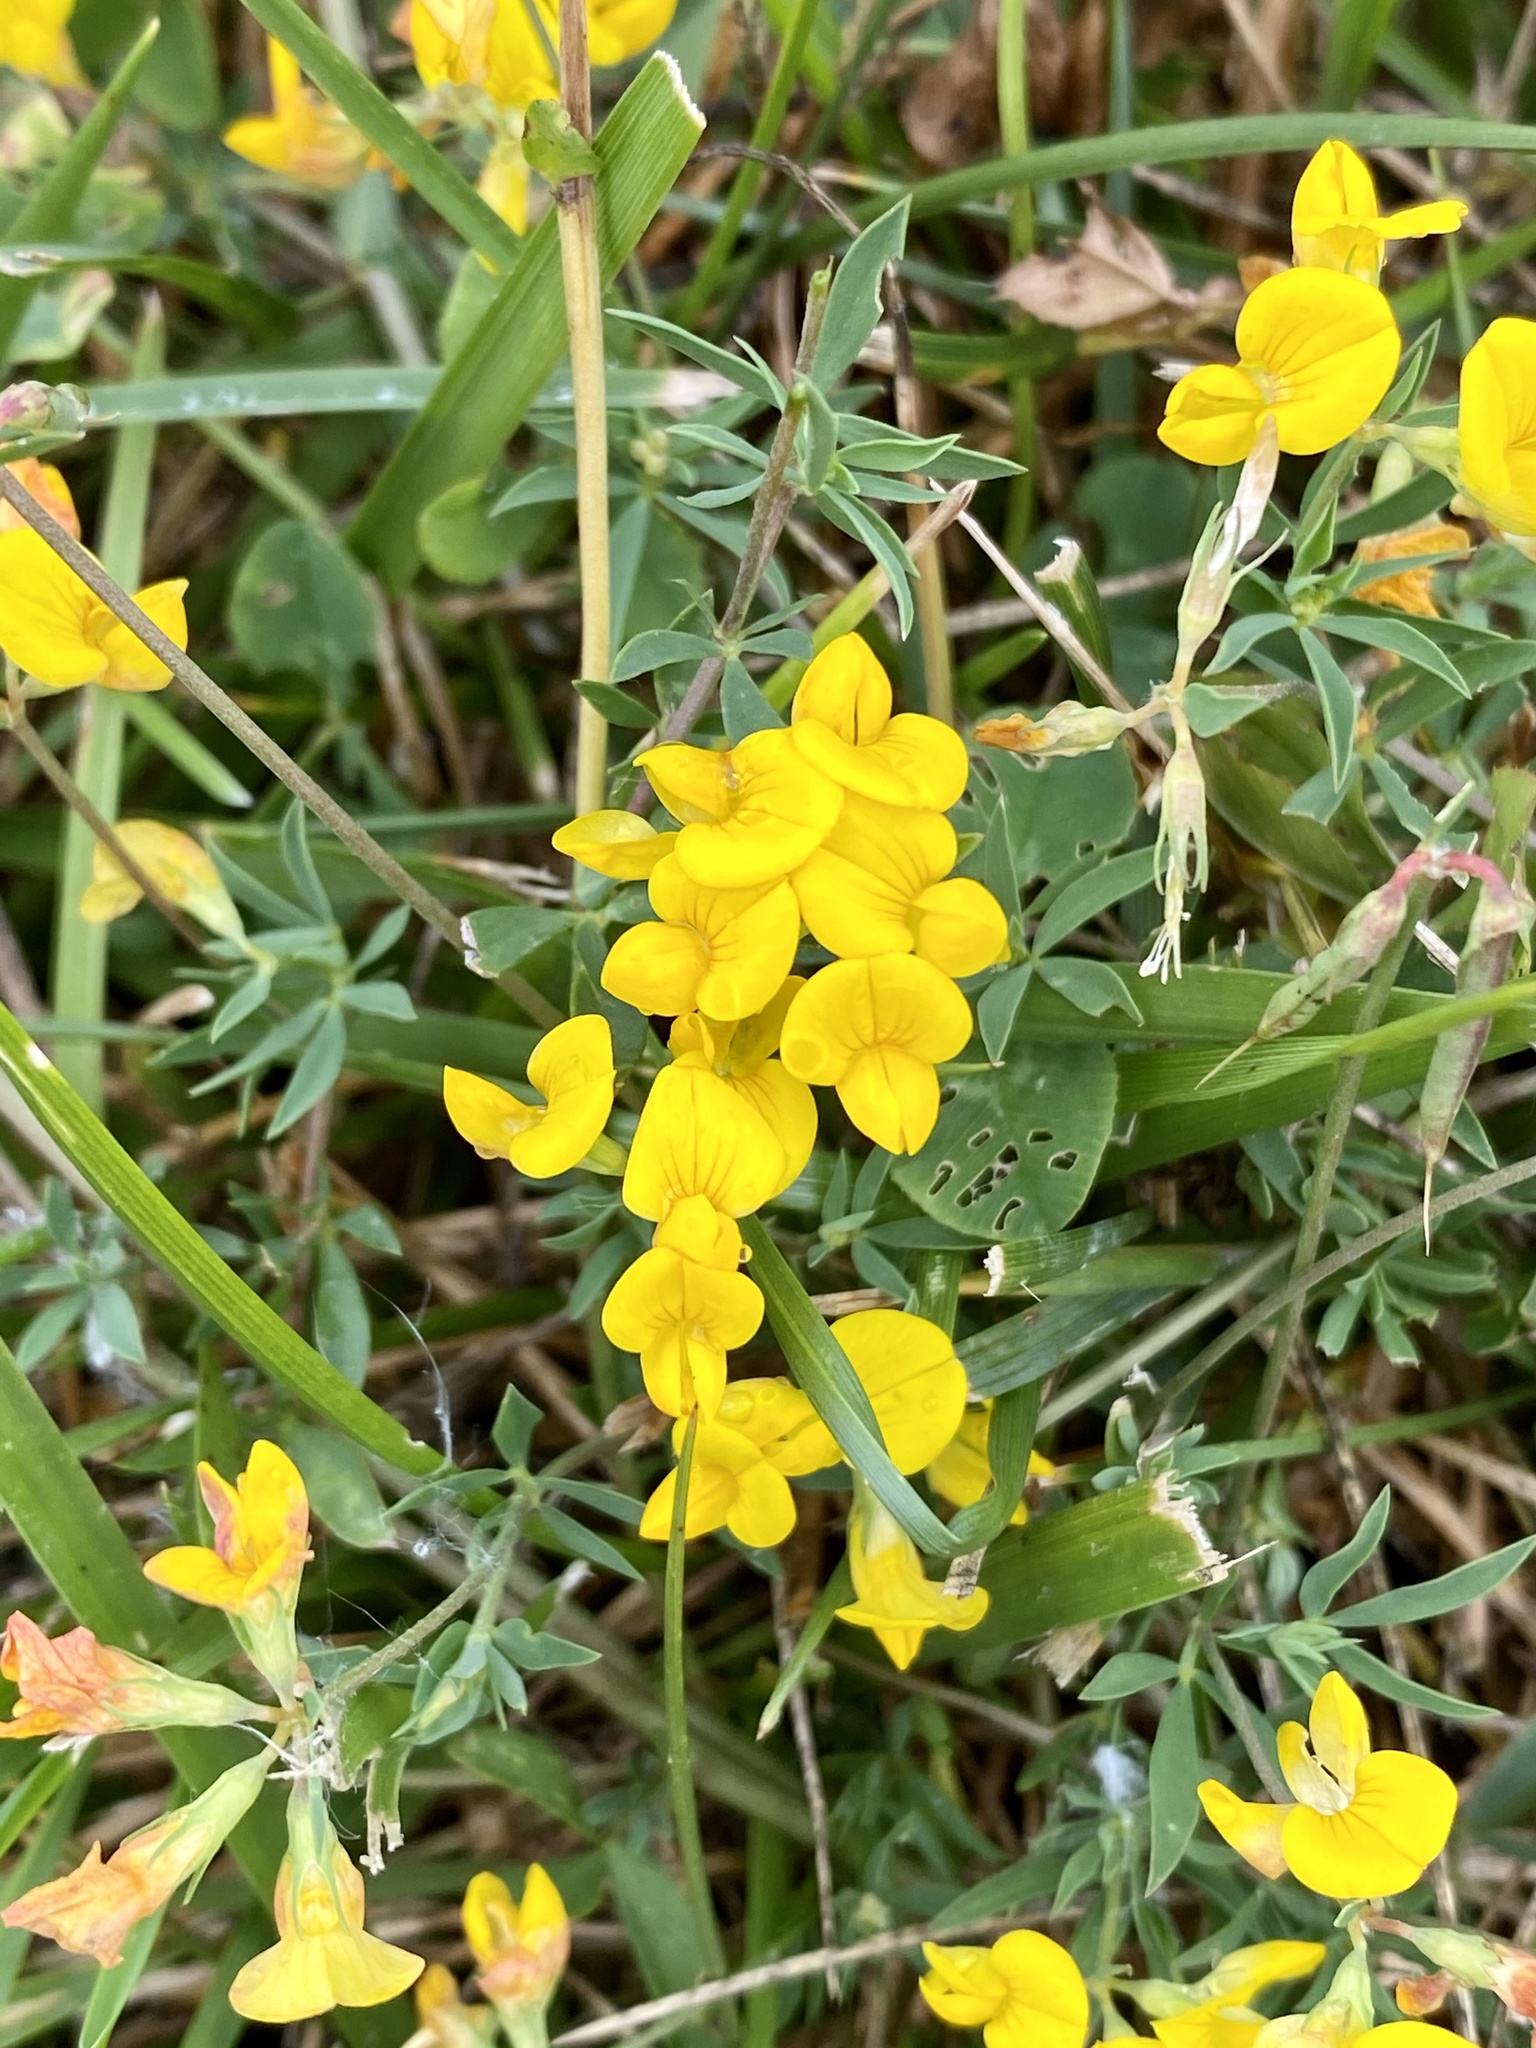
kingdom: Plantae
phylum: Tracheophyta
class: Magnoliopsida
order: Fabales
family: Fabaceae
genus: Lotus
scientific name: Lotus corniculatus
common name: Common bird's-foot-trefoil
